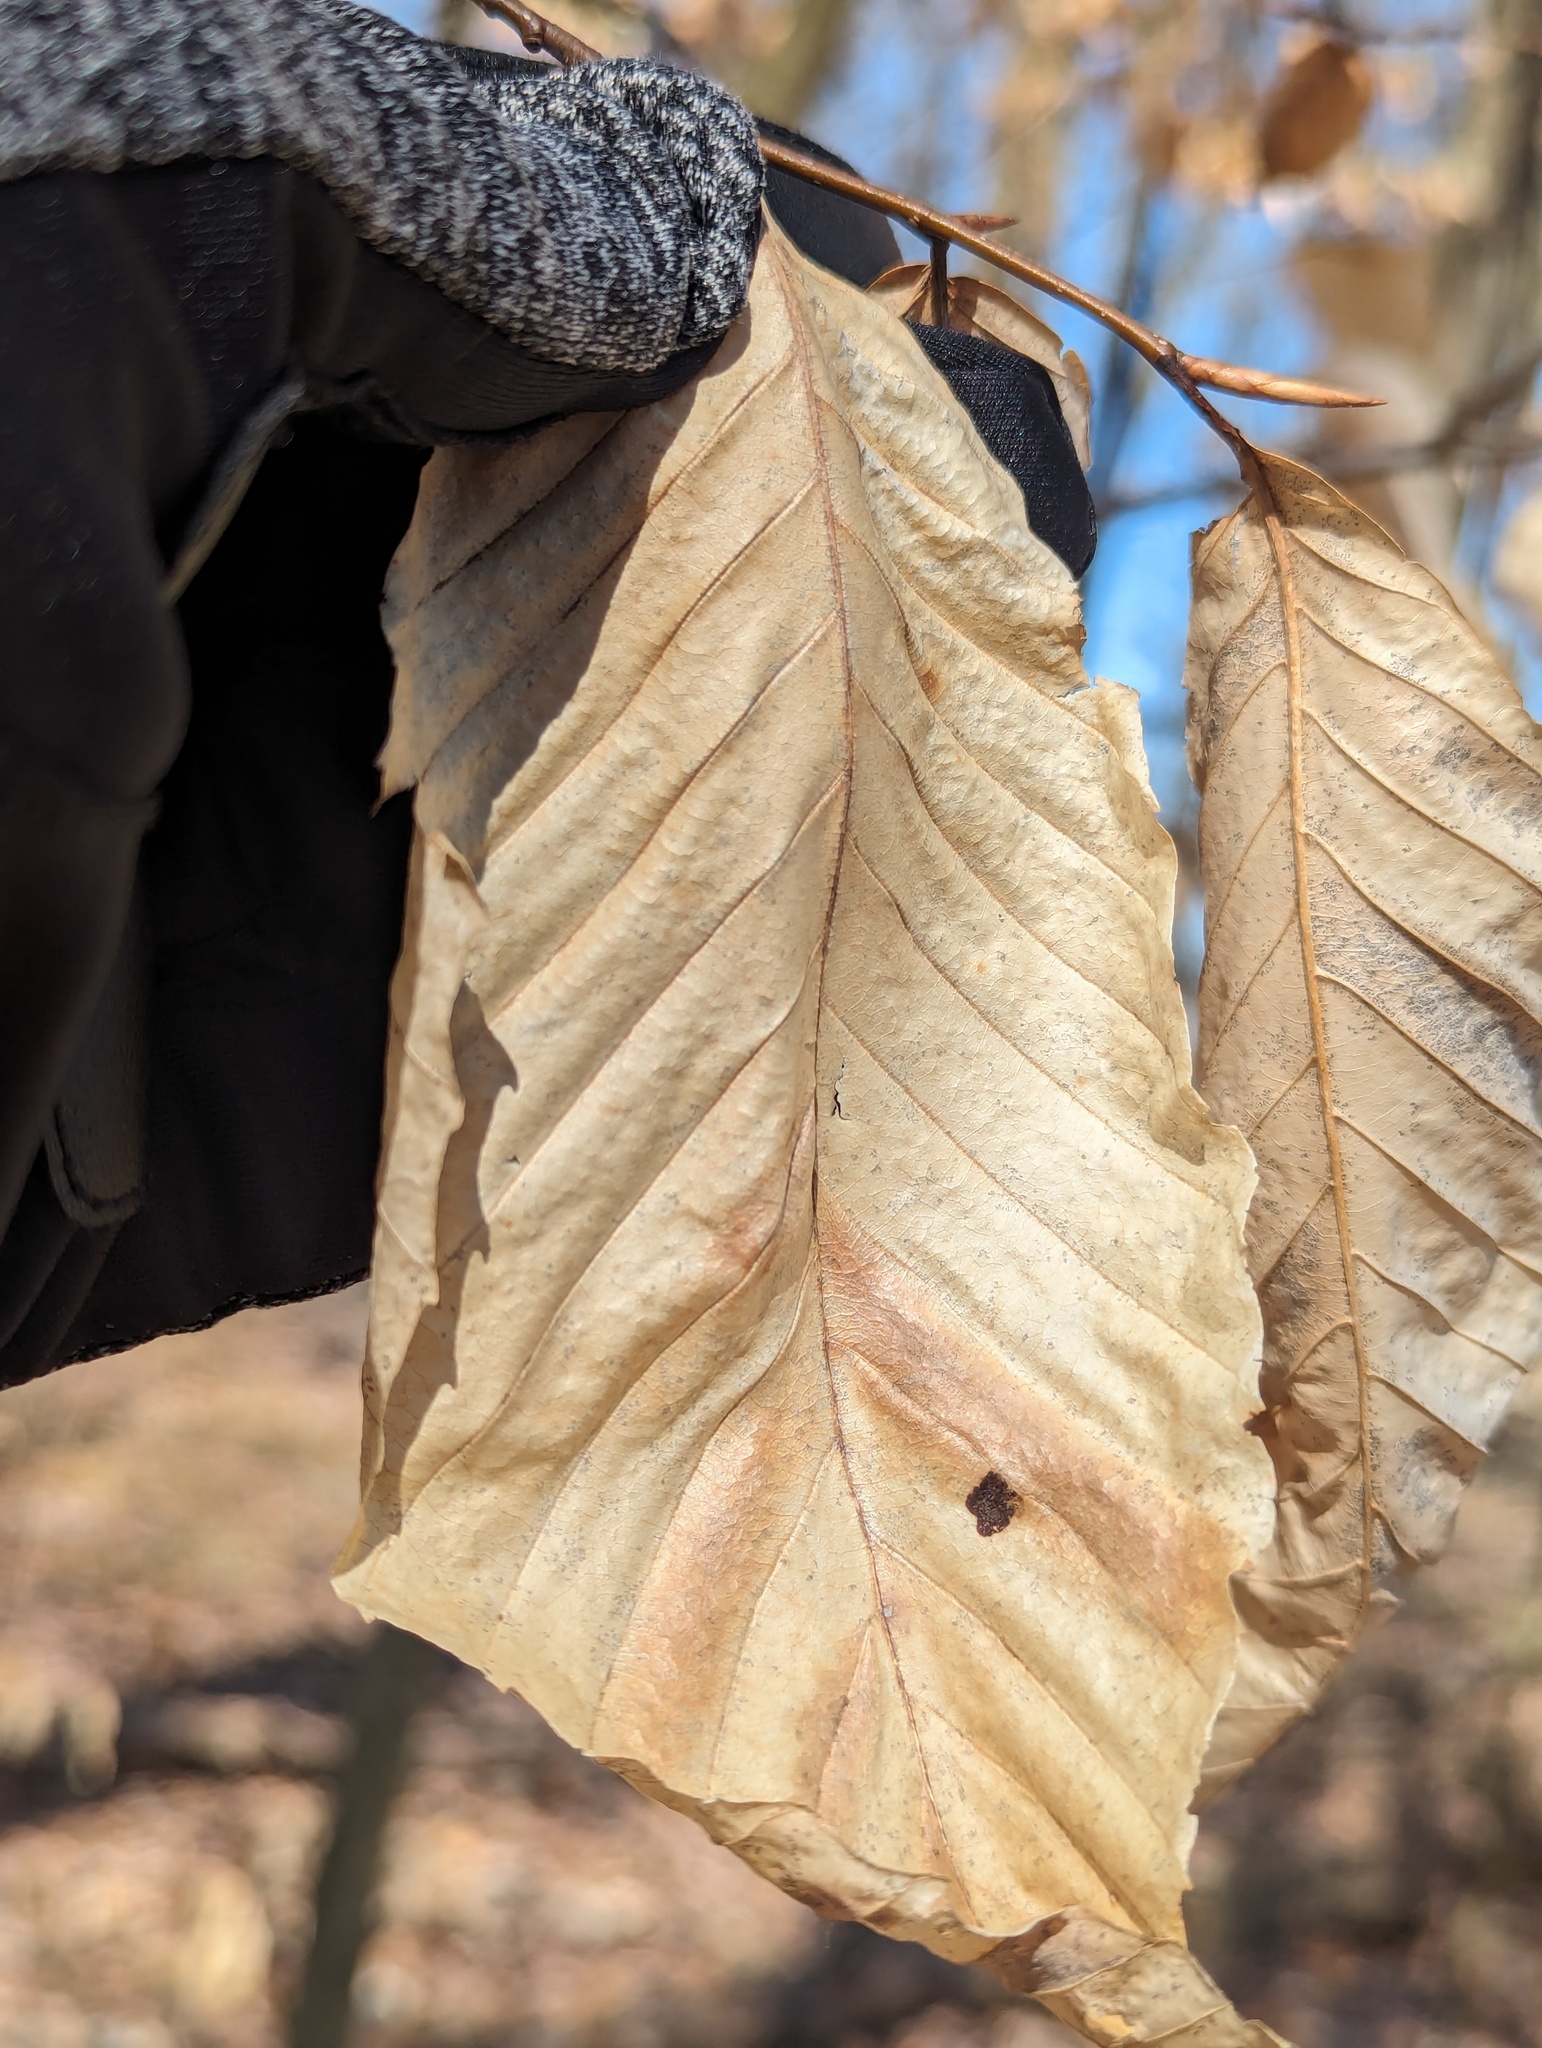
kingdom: Plantae
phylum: Tracheophyta
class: Magnoliopsida
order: Fagales
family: Fagaceae
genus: Fagus
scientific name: Fagus grandifolia
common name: American beech
